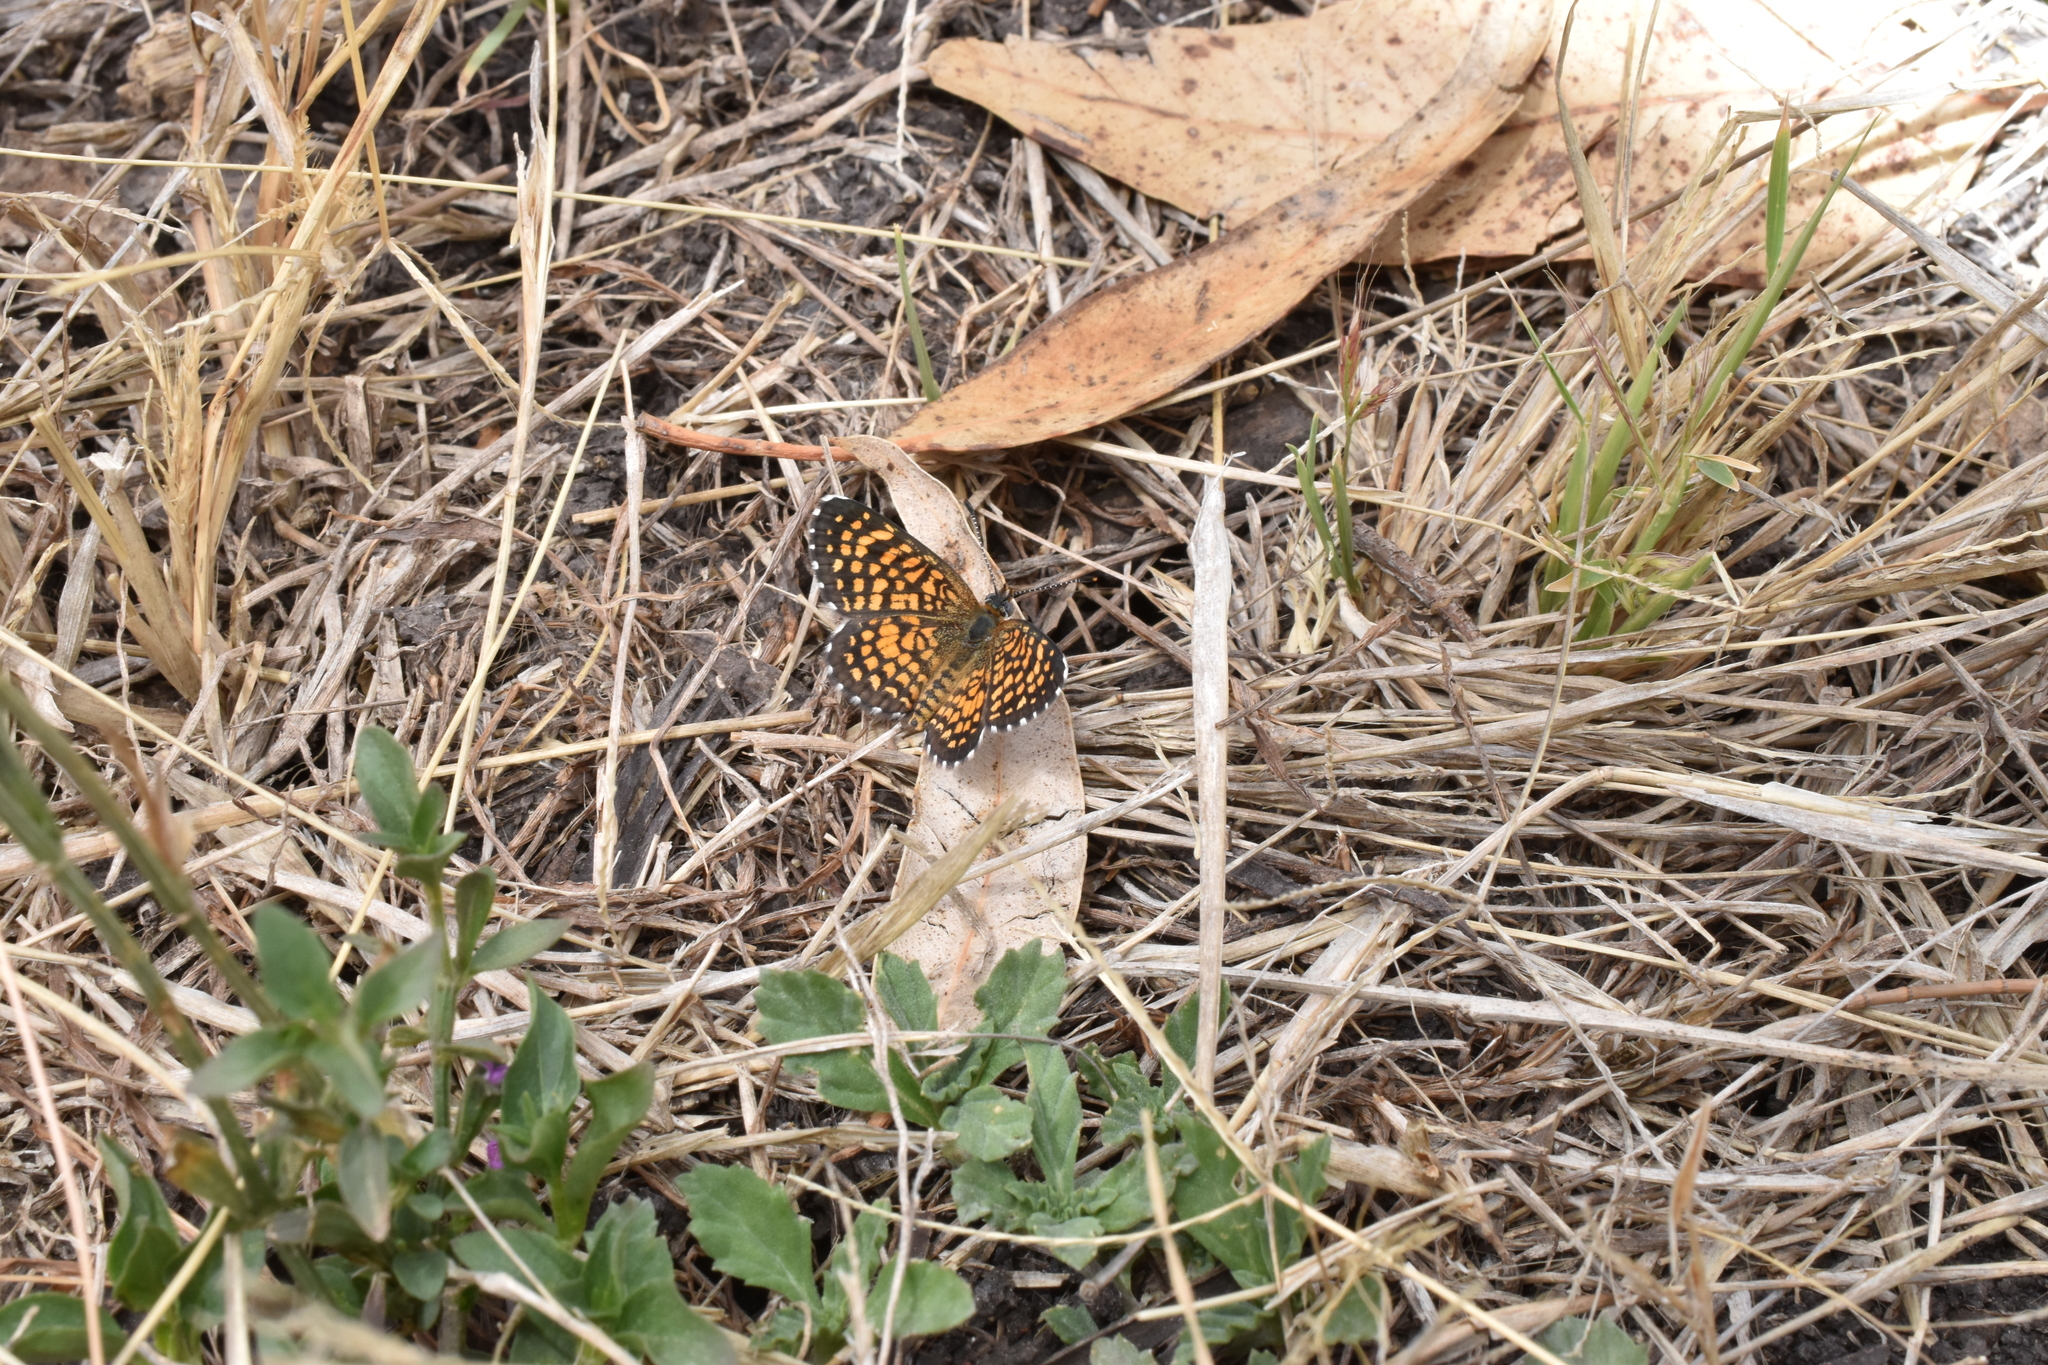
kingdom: Animalia
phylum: Arthropoda
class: Insecta
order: Lepidoptera
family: Nymphalidae
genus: Texola
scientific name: Texola elada
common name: Elada checkerspot
